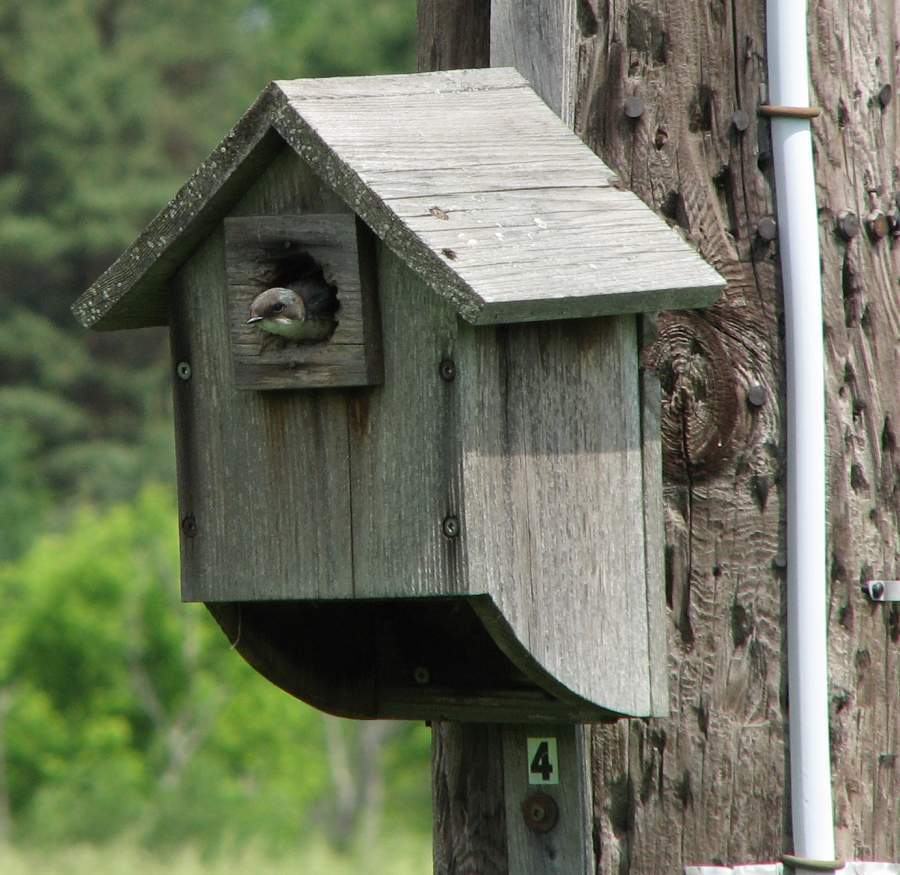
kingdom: Animalia
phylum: Chordata
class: Aves
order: Passeriformes
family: Hirundinidae
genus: Tachycineta
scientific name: Tachycineta bicolor
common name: Tree swallow
